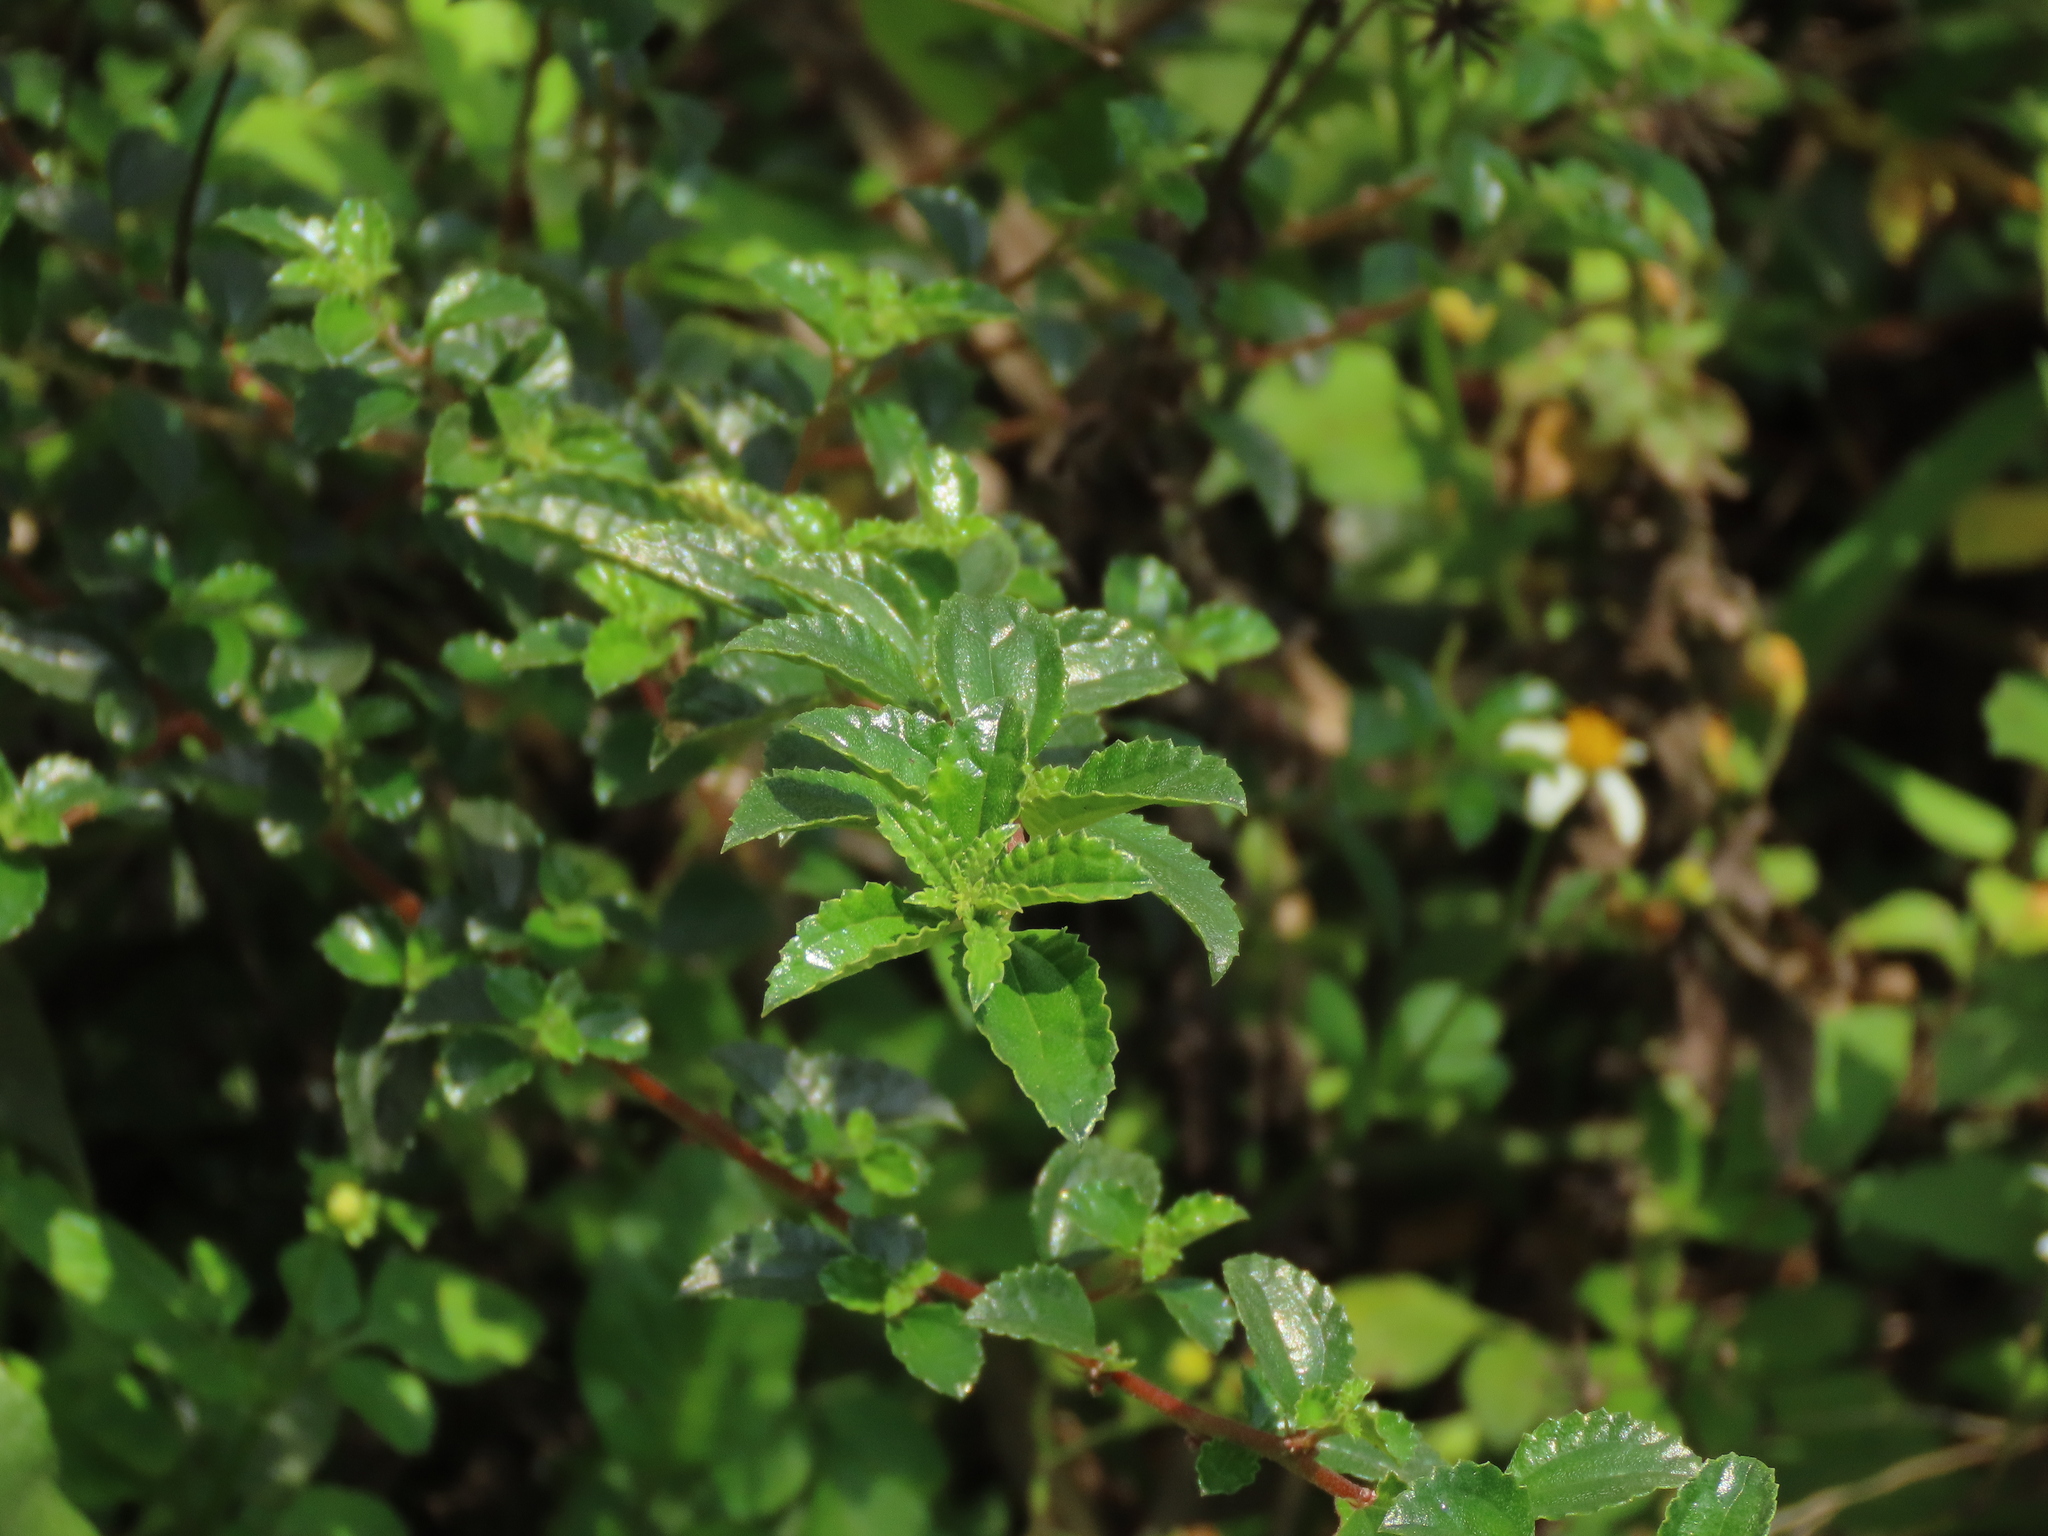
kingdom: Plantae
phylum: Tracheophyta
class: Magnoliopsida
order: Rosales
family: Urticaceae
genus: Pouzolzia
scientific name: Pouzolzia sanguinea
